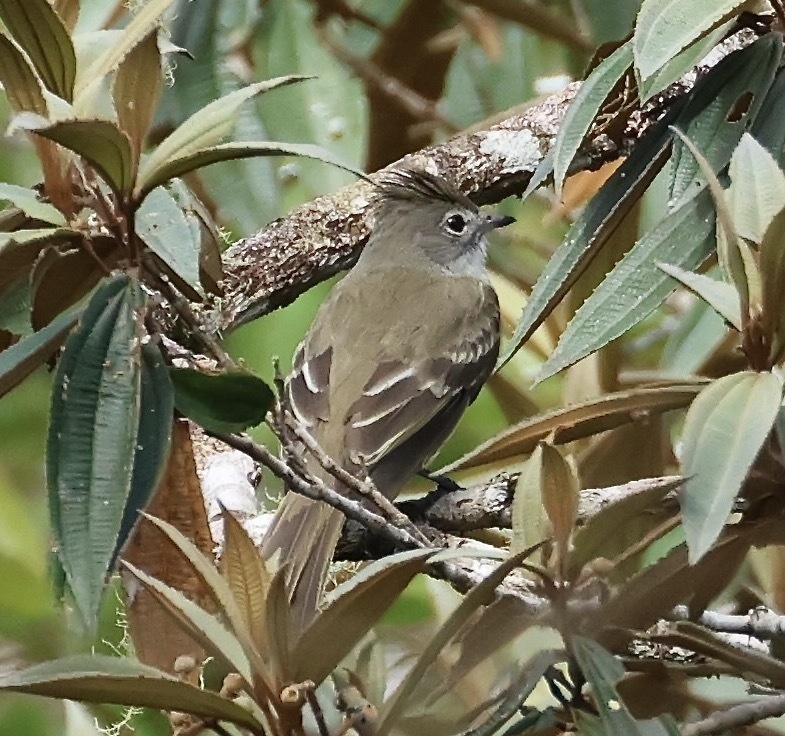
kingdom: Animalia
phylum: Chordata
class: Aves
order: Passeriformes
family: Tyrannidae
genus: Elaenia
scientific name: Elaenia flavogaster
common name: Yellow-bellied elaenia
